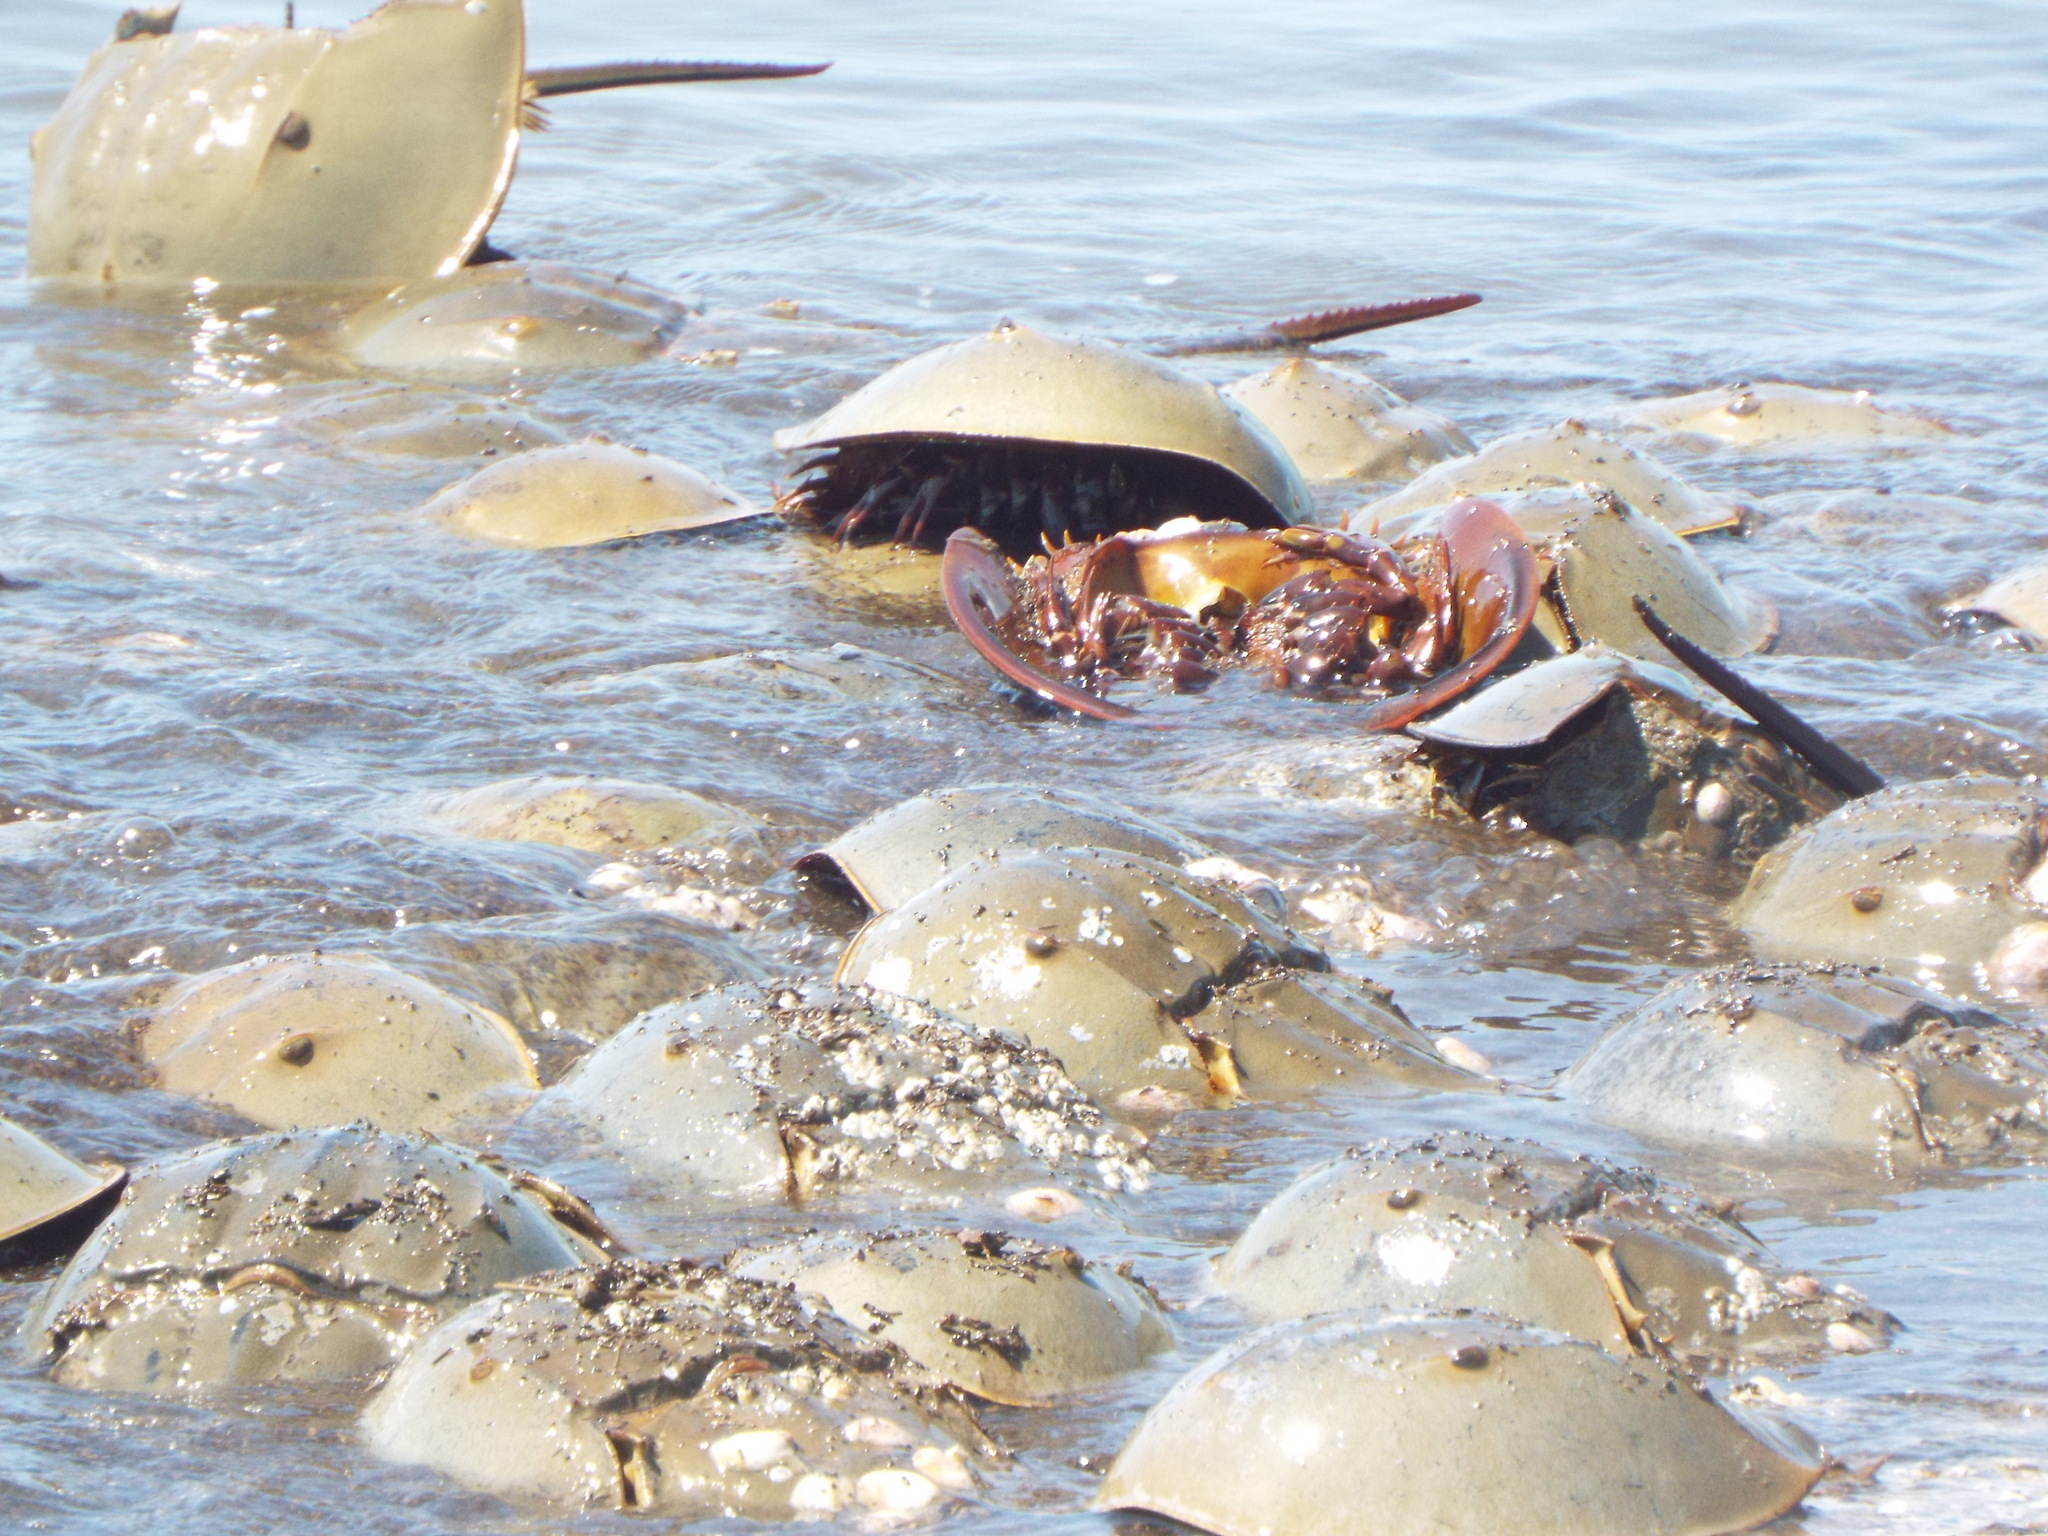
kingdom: Animalia
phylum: Arthropoda
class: Merostomata
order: Xiphosurida
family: Limulidae
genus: Limulus
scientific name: Limulus polyphemus
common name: Horseshoe crab
